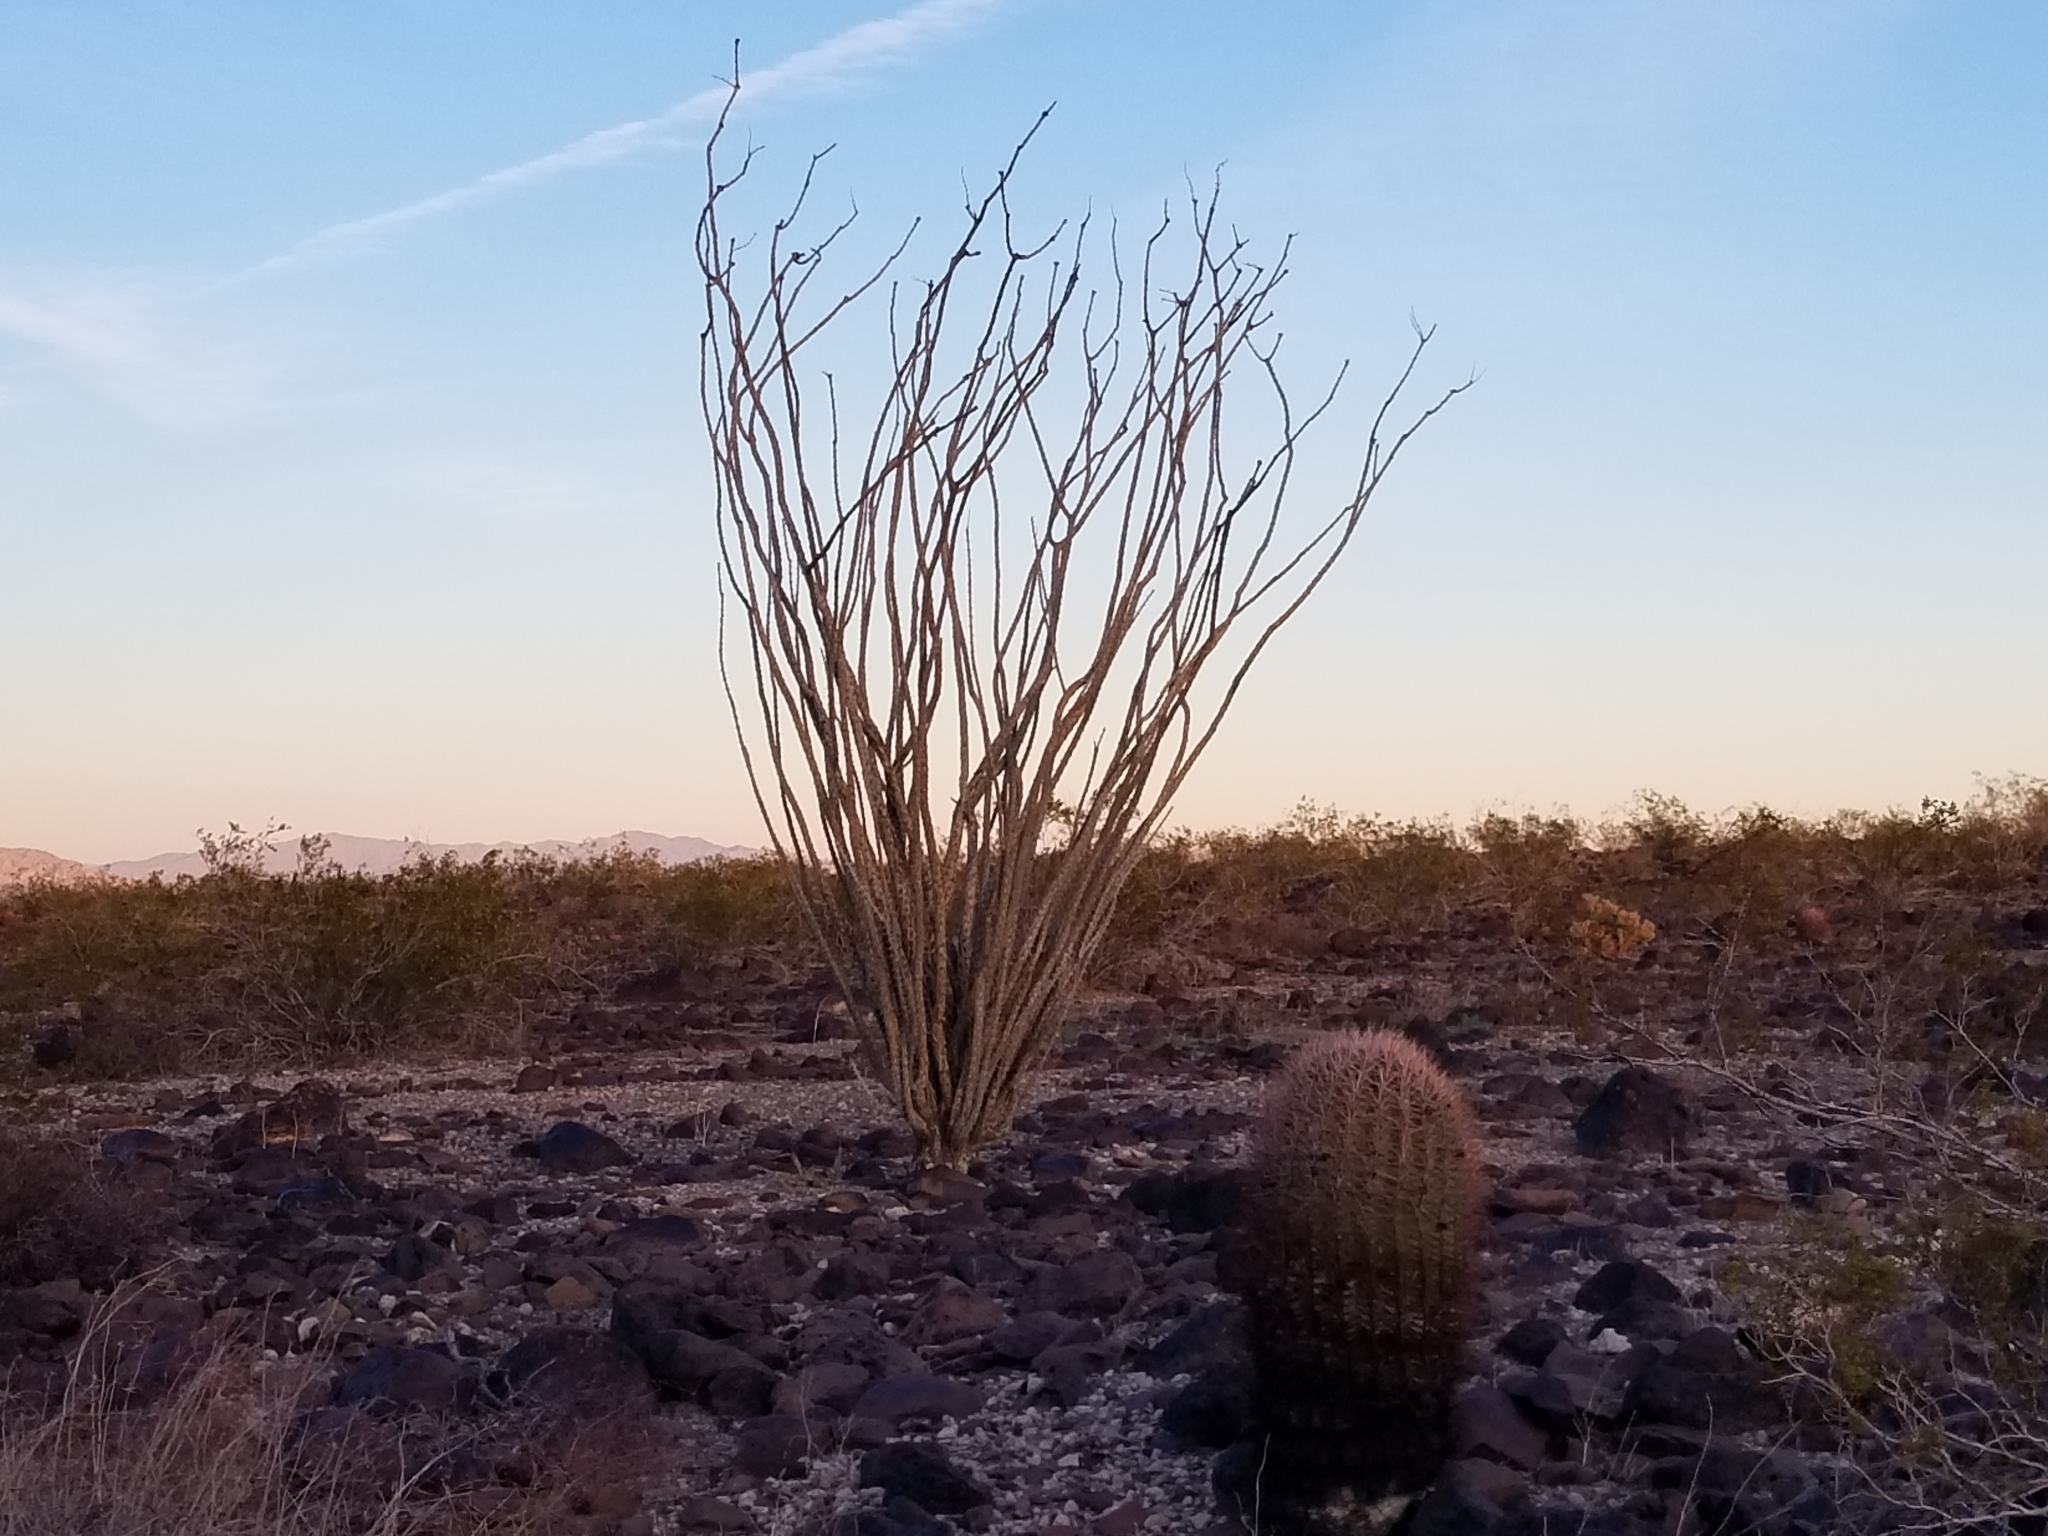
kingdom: Plantae
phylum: Tracheophyta
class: Magnoliopsida
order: Ericales
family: Fouquieriaceae
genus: Fouquieria
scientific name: Fouquieria splendens
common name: Vine-cactus
